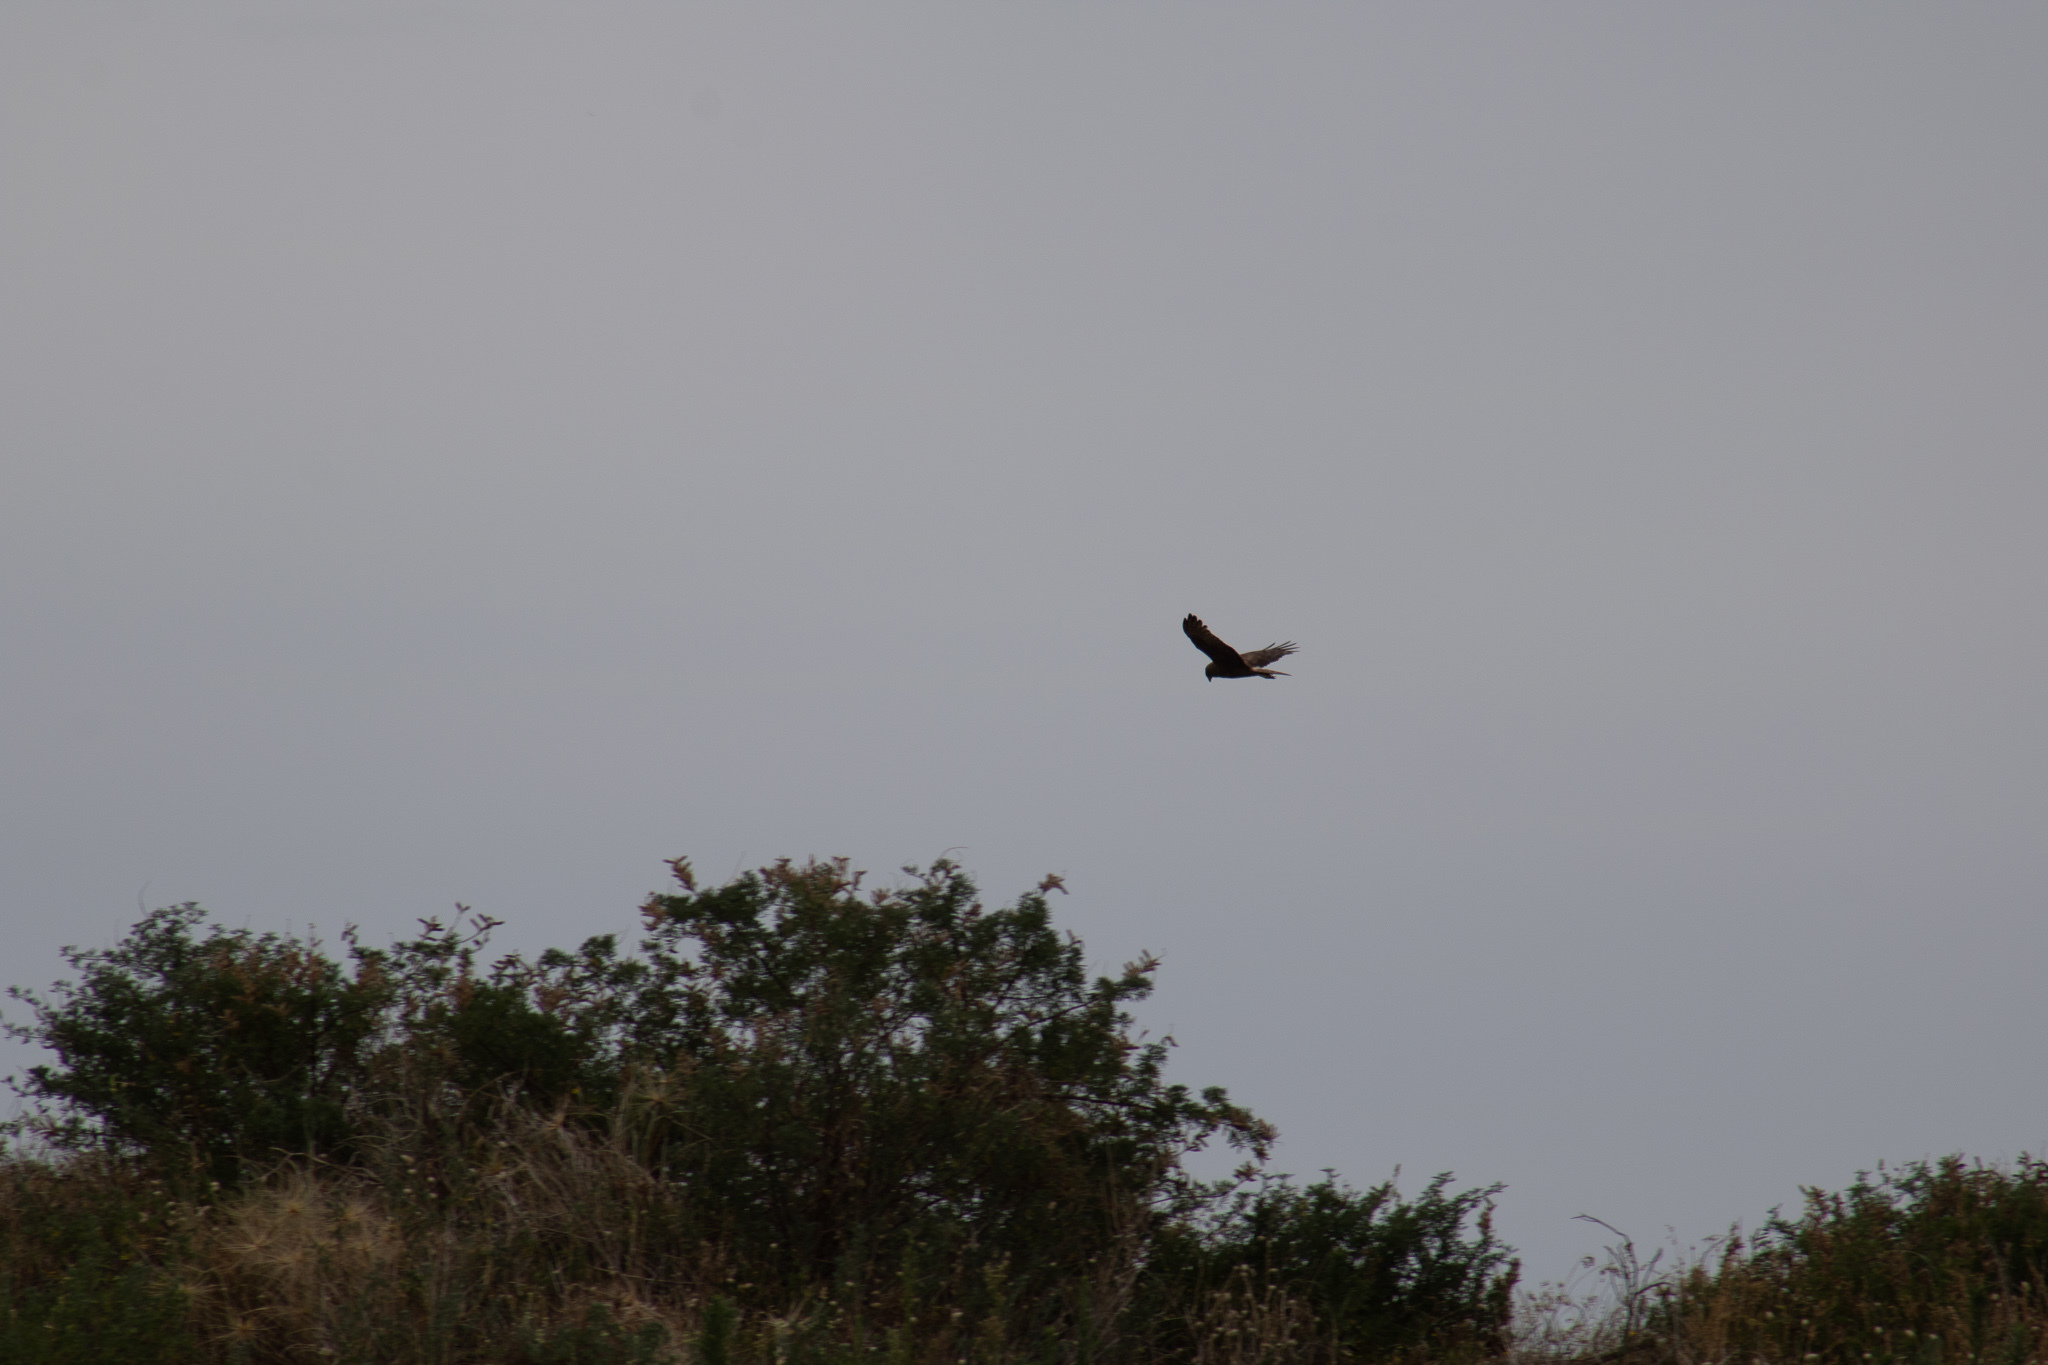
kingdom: Animalia
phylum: Chordata
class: Aves
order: Accipitriformes
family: Accipitridae
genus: Circus
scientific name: Circus approximans
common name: Swamp harrier
